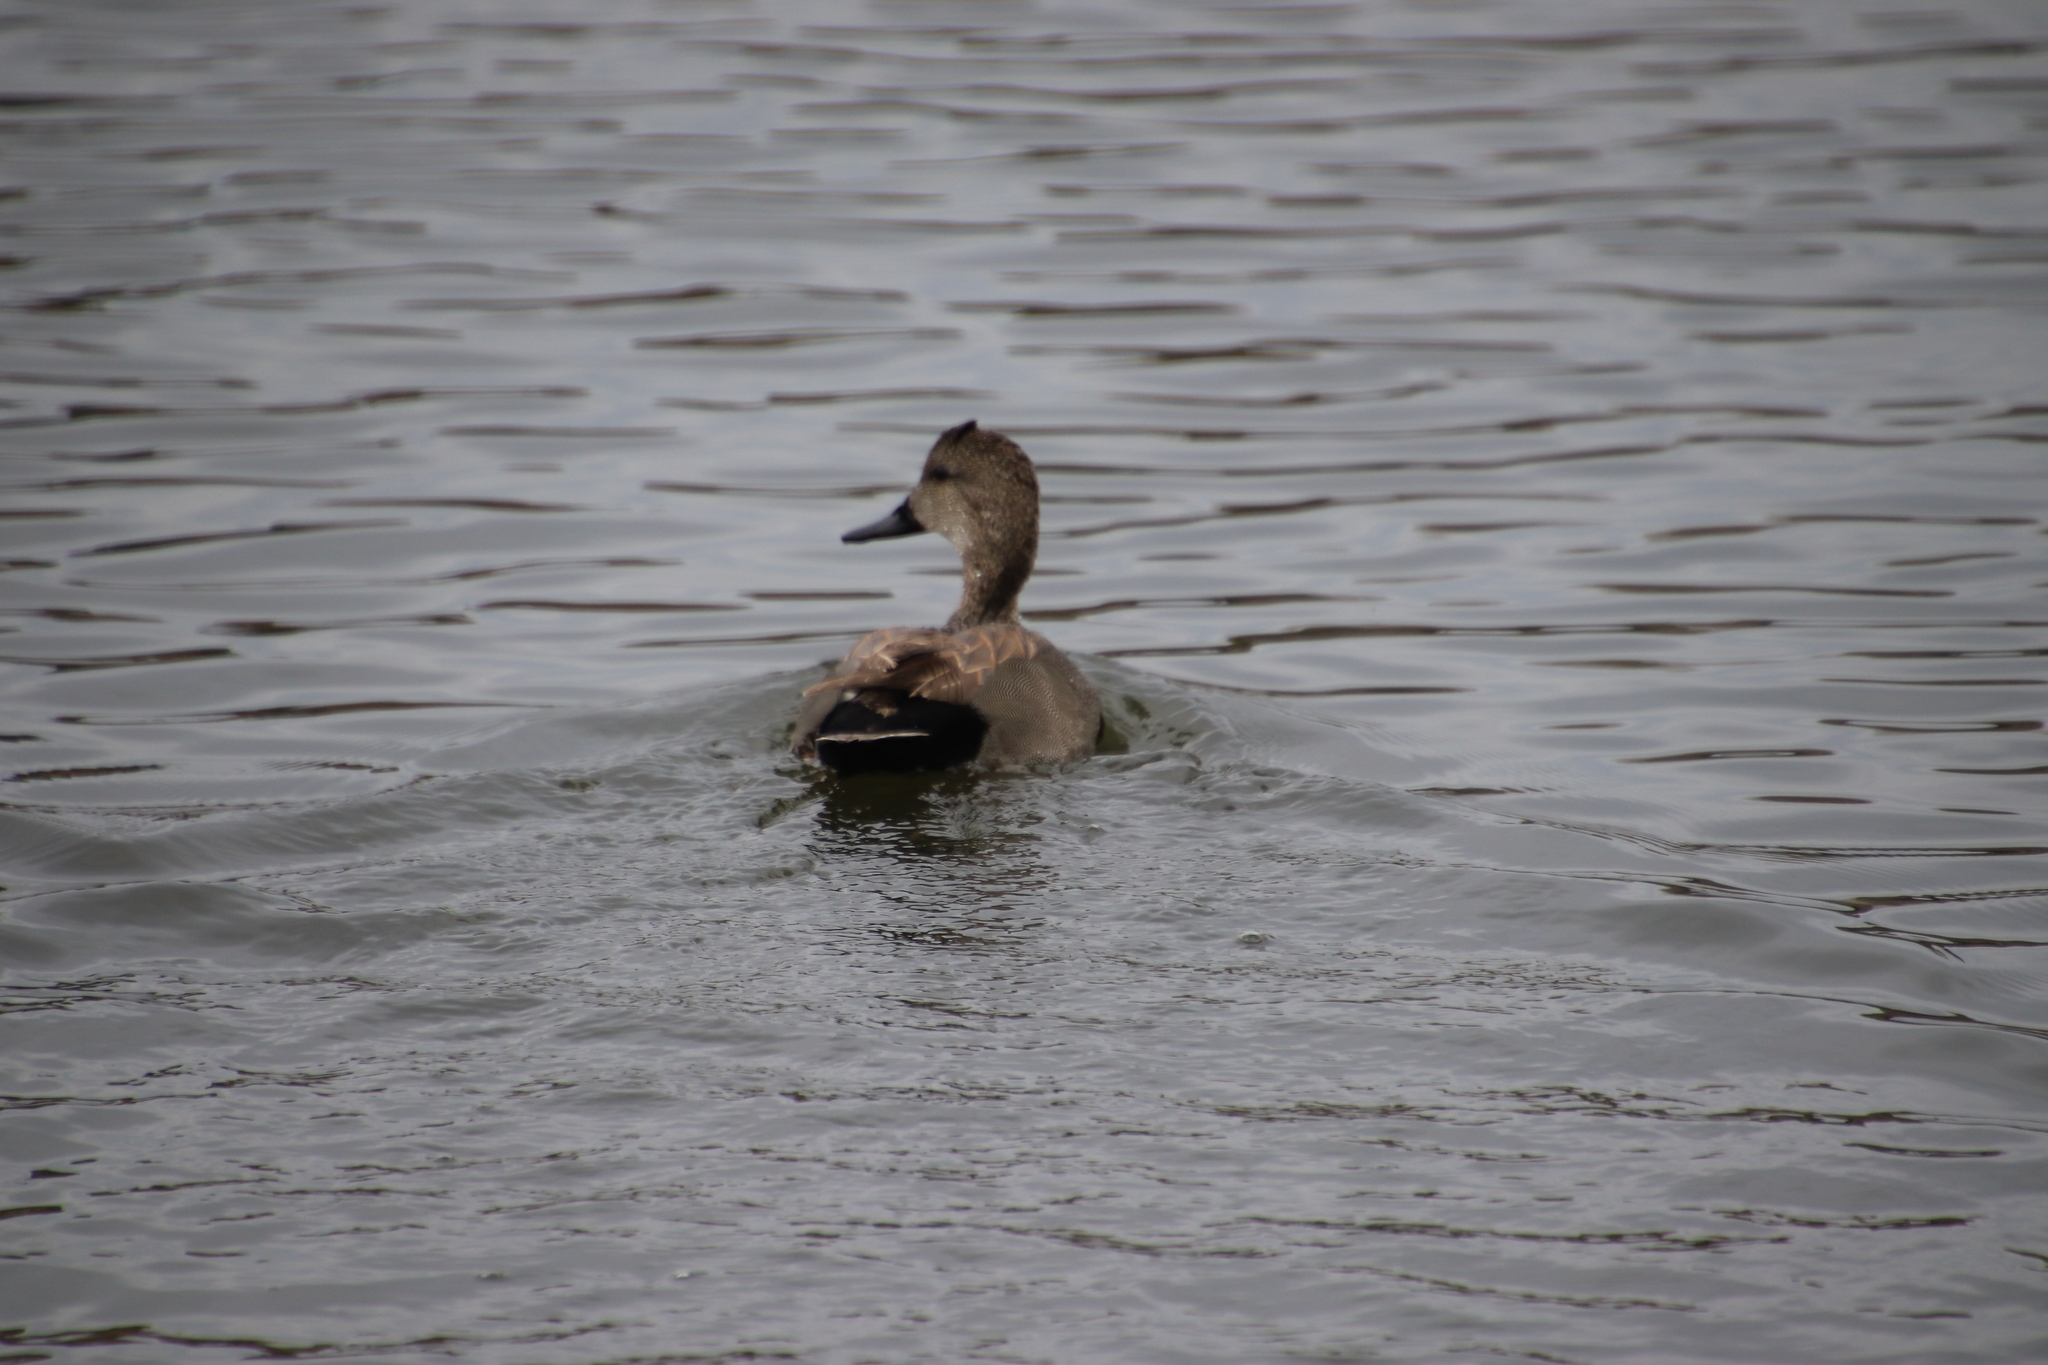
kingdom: Animalia
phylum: Chordata
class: Aves
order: Anseriformes
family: Anatidae
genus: Mareca
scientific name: Mareca strepera
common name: Gadwall
